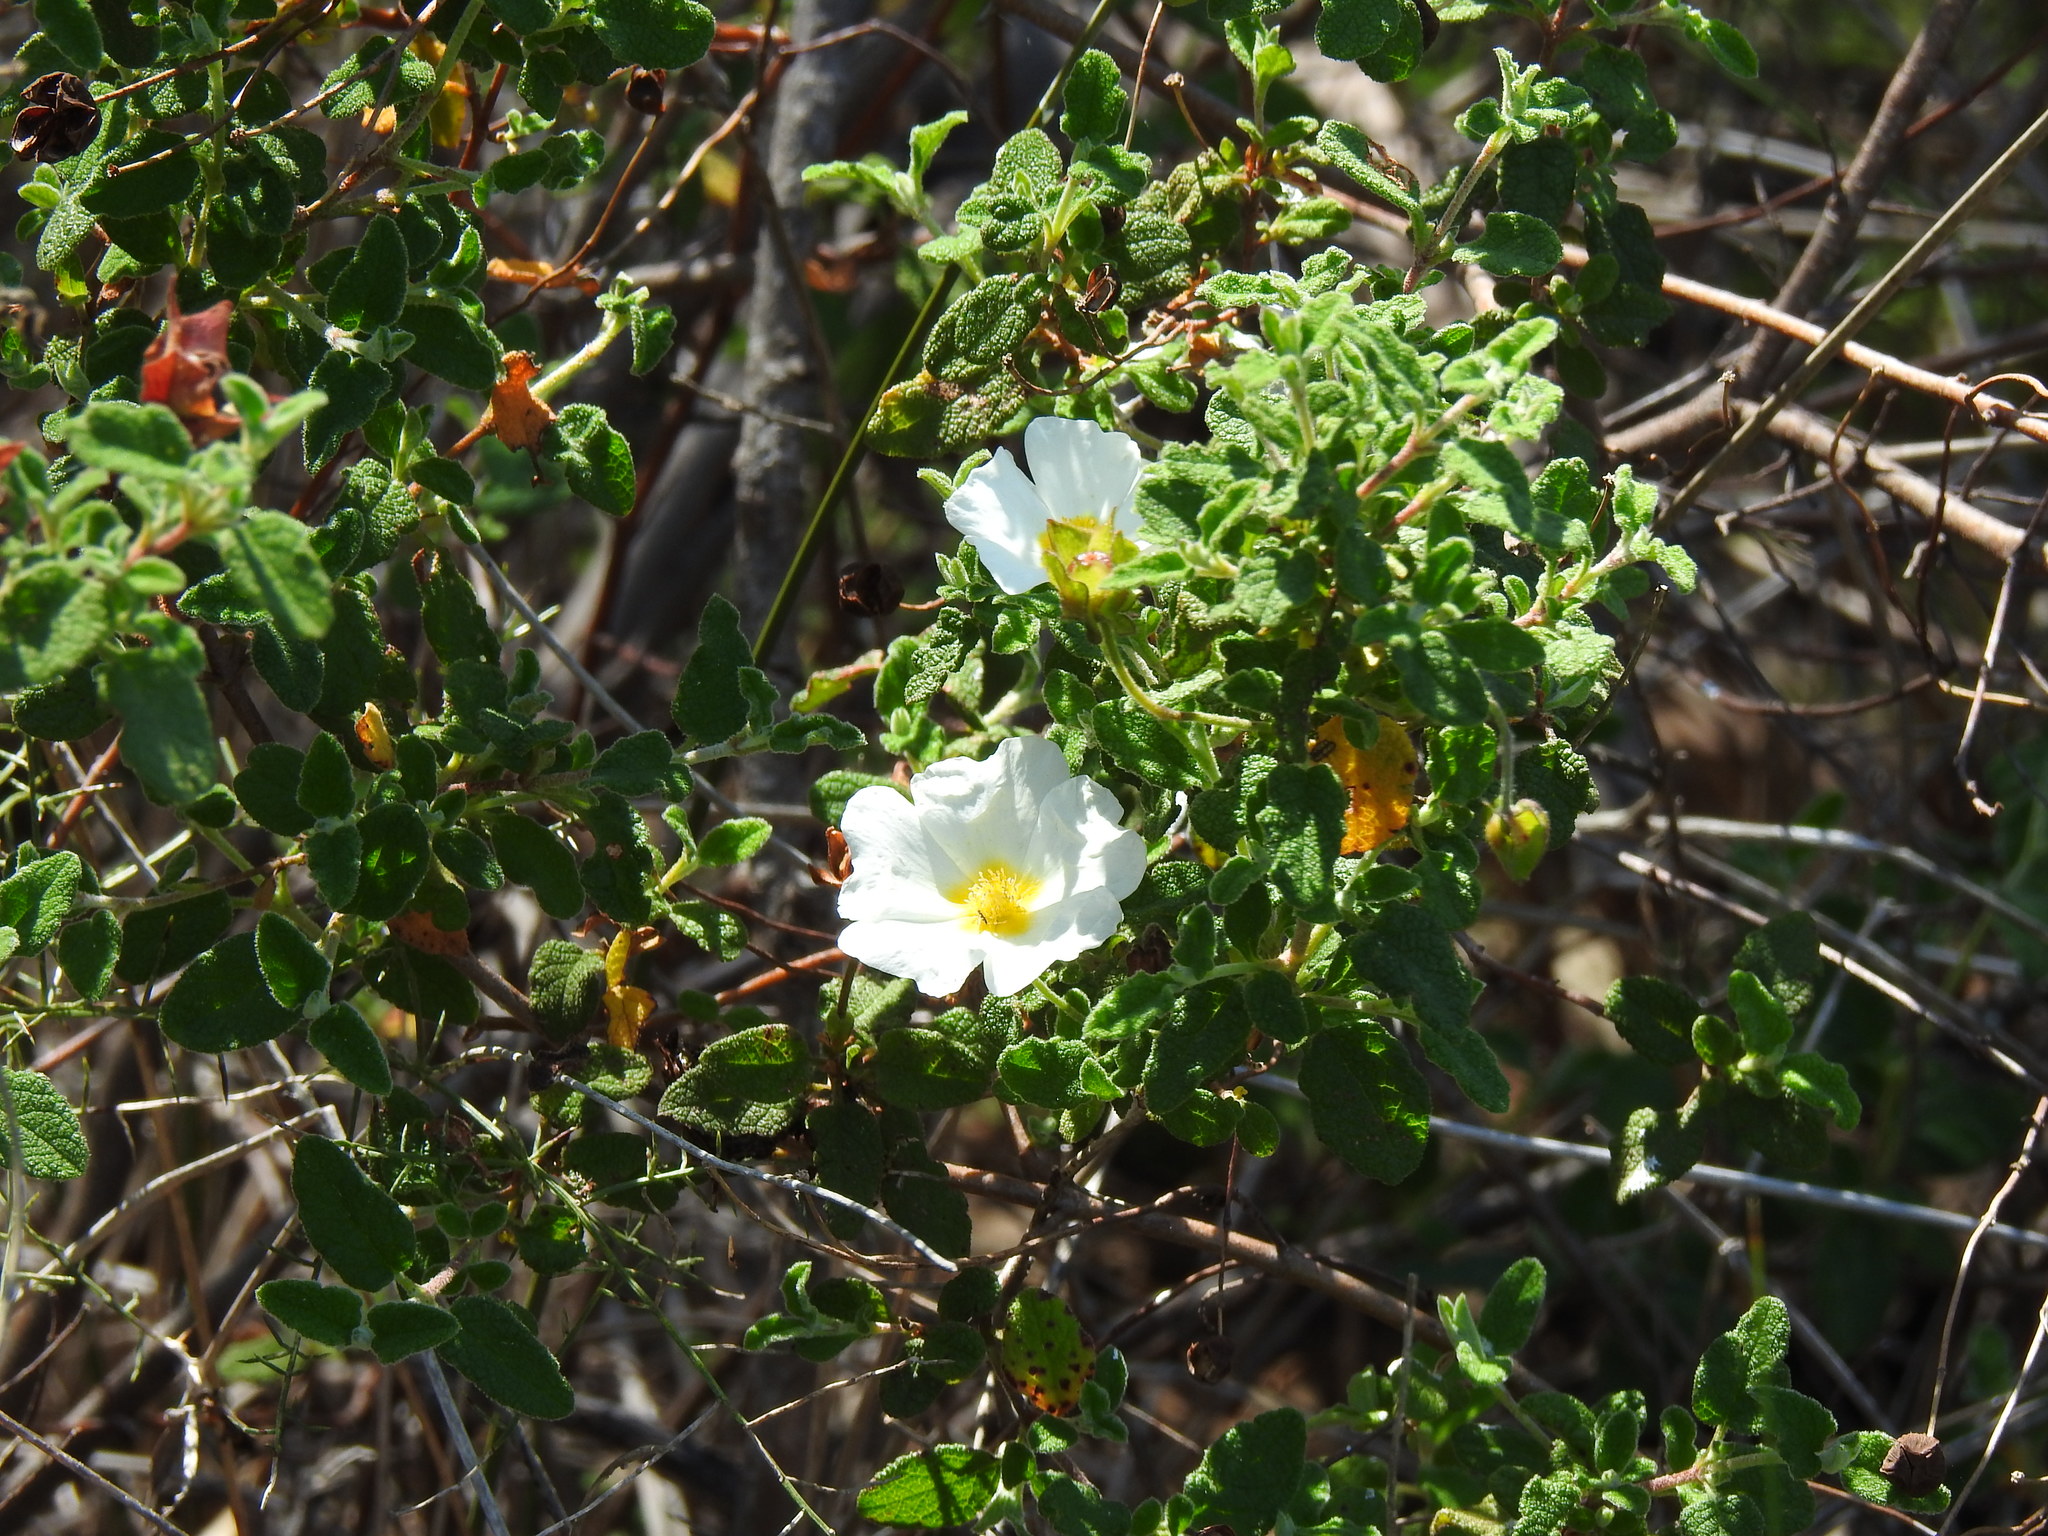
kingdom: Plantae
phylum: Tracheophyta
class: Magnoliopsida
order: Malvales
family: Cistaceae
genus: Cistus
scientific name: Cistus salviifolius
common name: Salvia cistus
